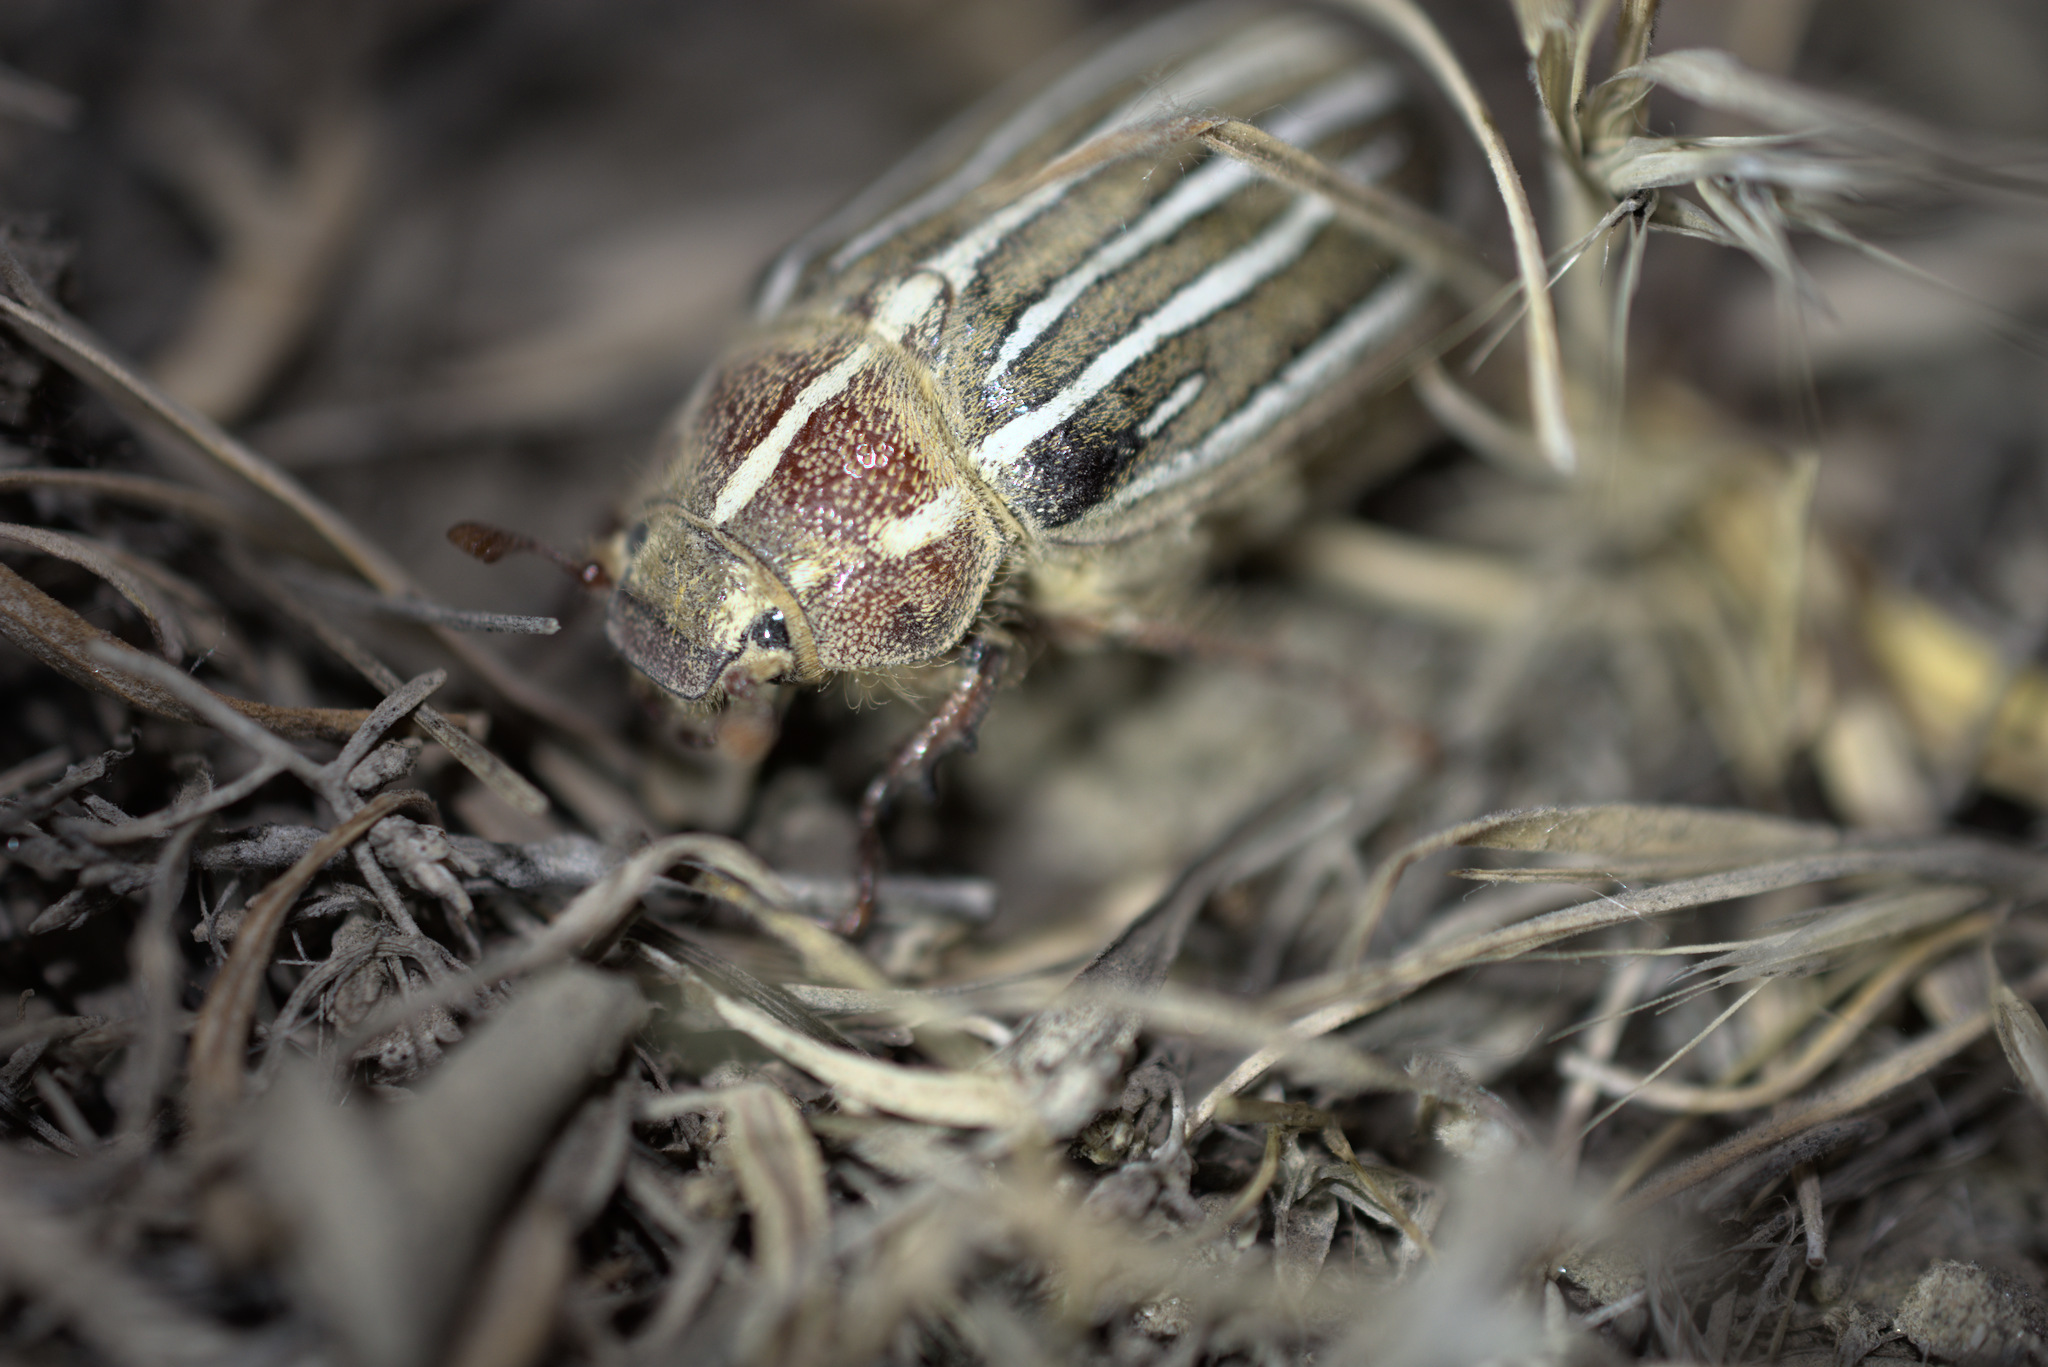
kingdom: Animalia
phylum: Arthropoda
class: Insecta
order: Coleoptera
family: Scarabaeidae
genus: Polyphylla
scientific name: Polyphylla crinita
